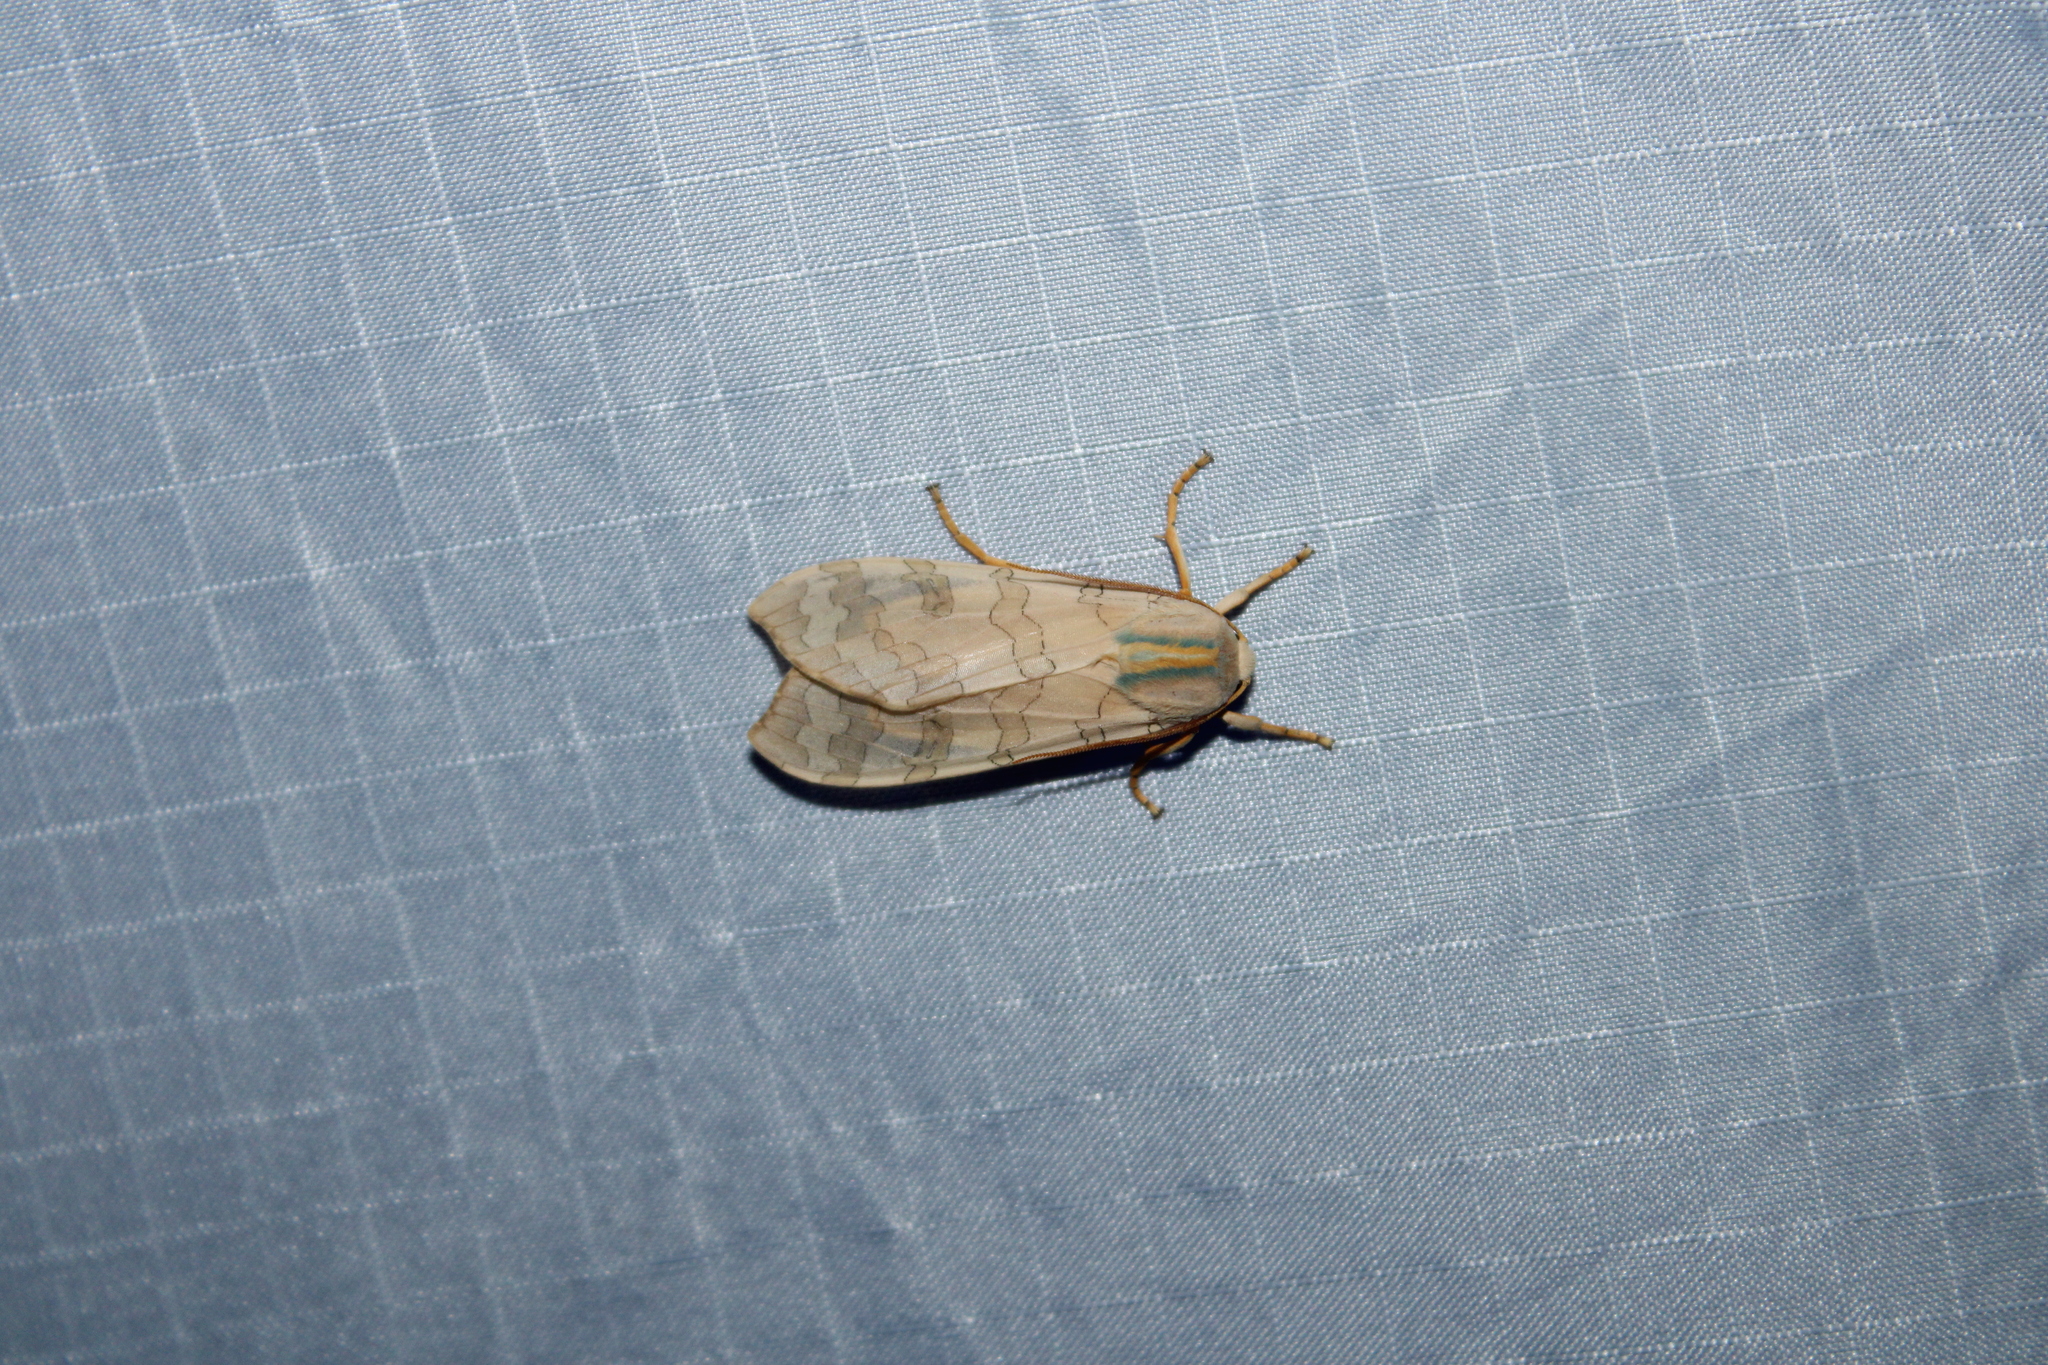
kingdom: Animalia
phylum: Arthropoda
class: Insecta
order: Lepidoptera
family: Erebidae
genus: Halysidota
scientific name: Halysidota
